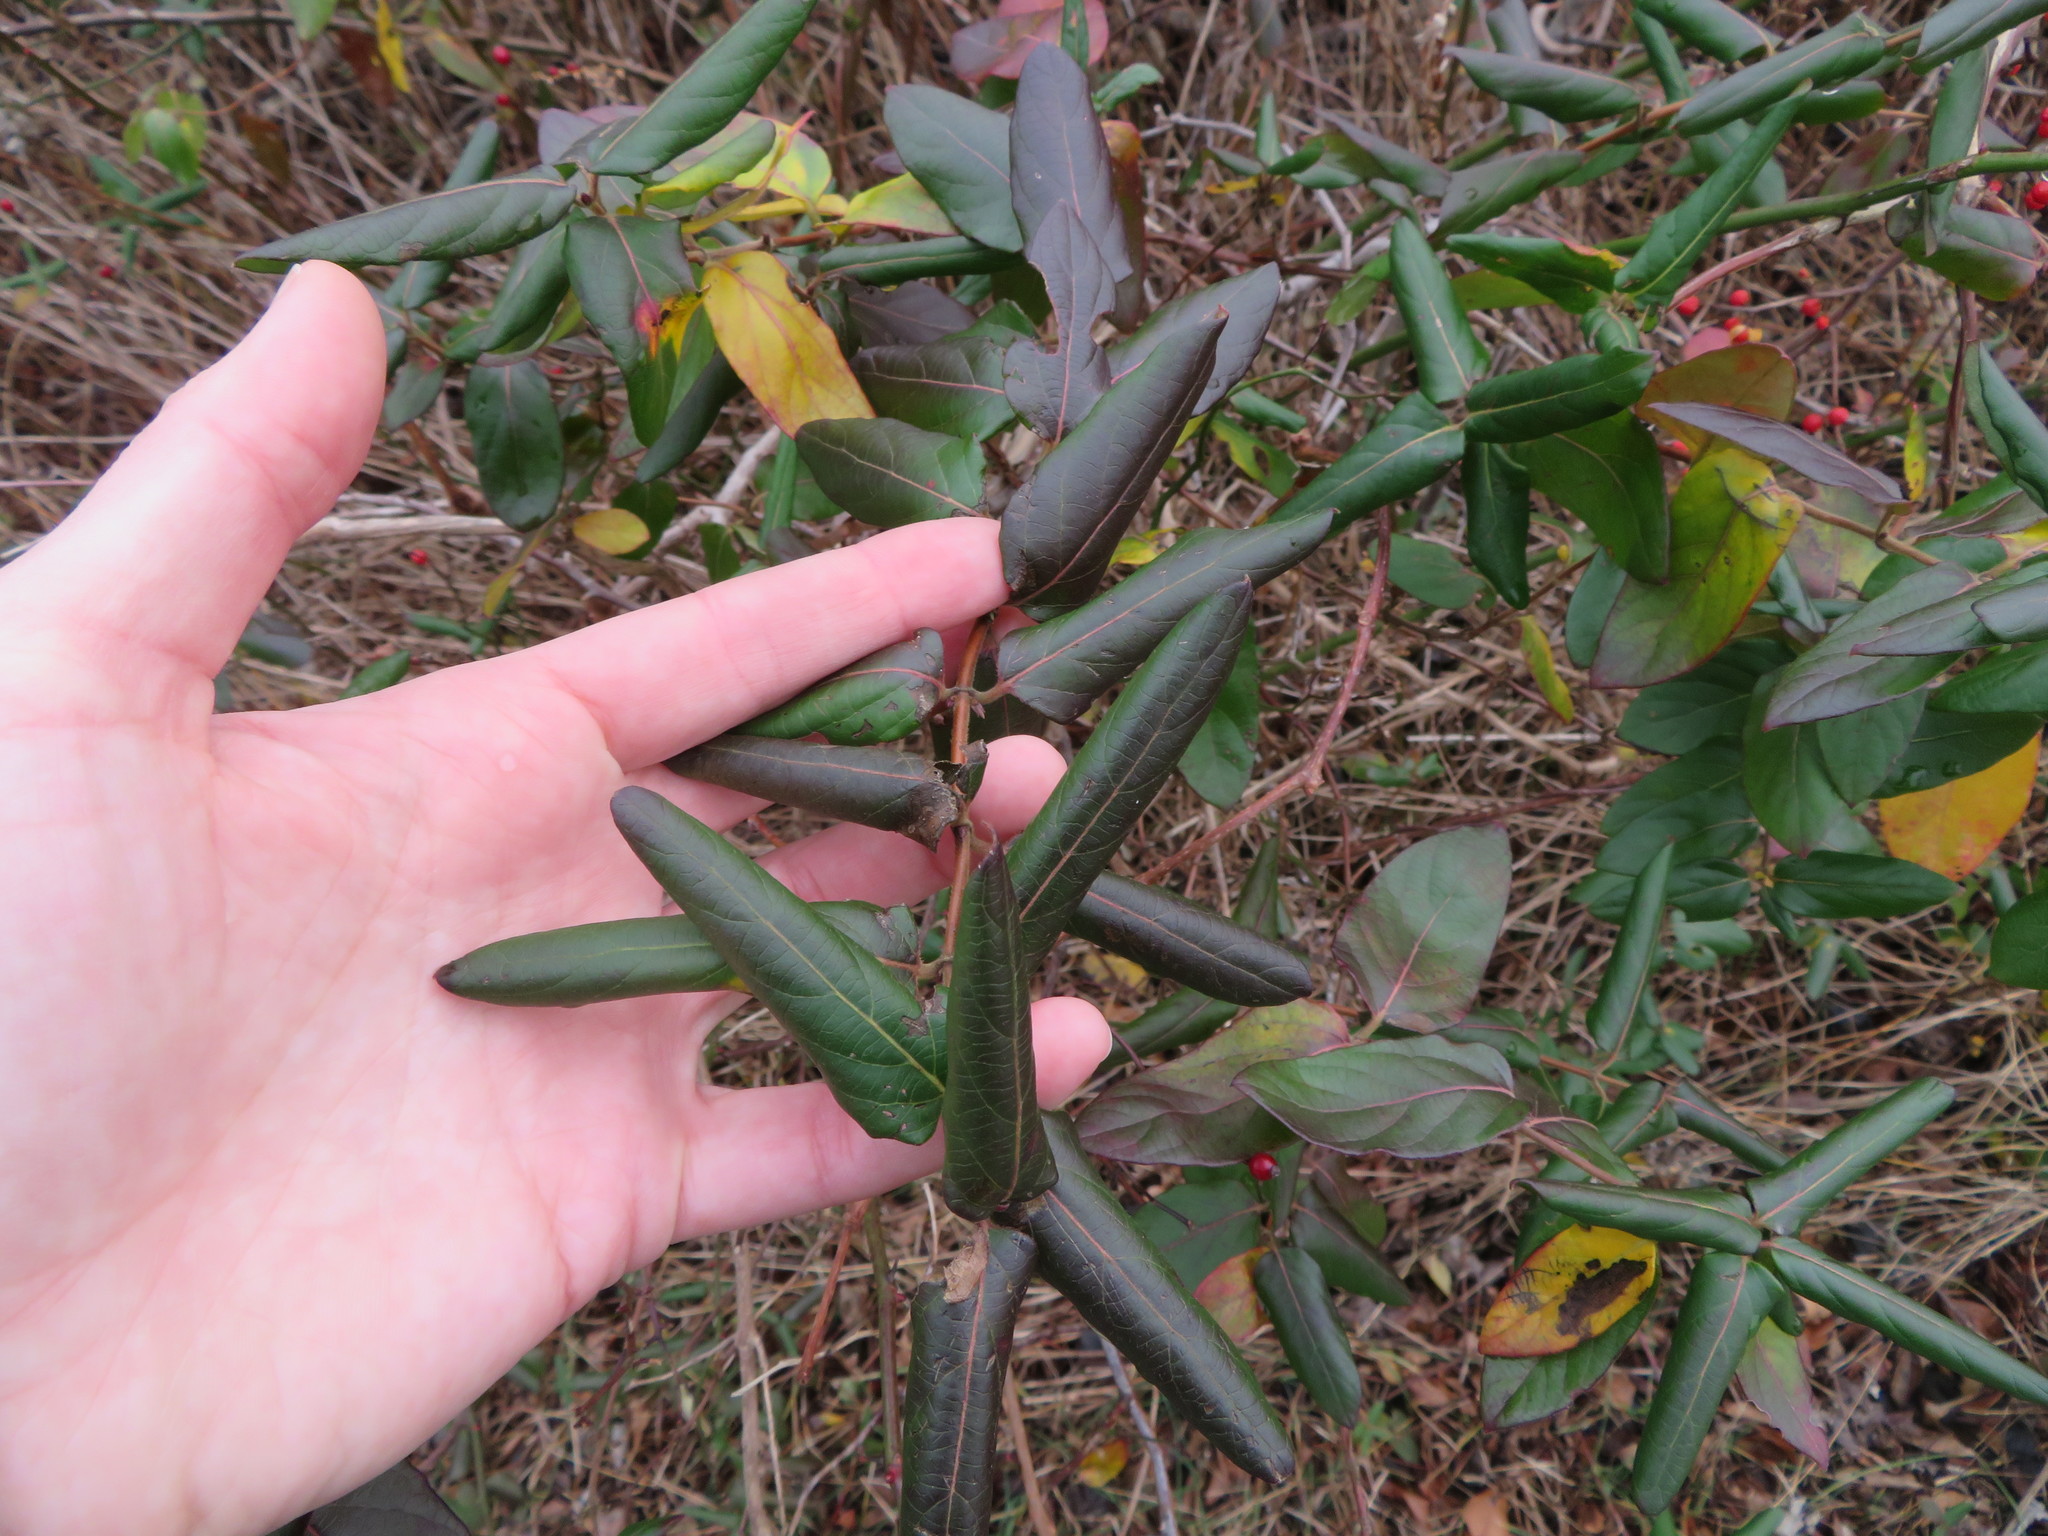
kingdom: Plantae
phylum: Tracheophyta
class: Magnoliopsida
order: Dipsacales
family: Caprifoliaceae
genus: Lonicera
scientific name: Lonicera japonica
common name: Japanese honeysuckle
